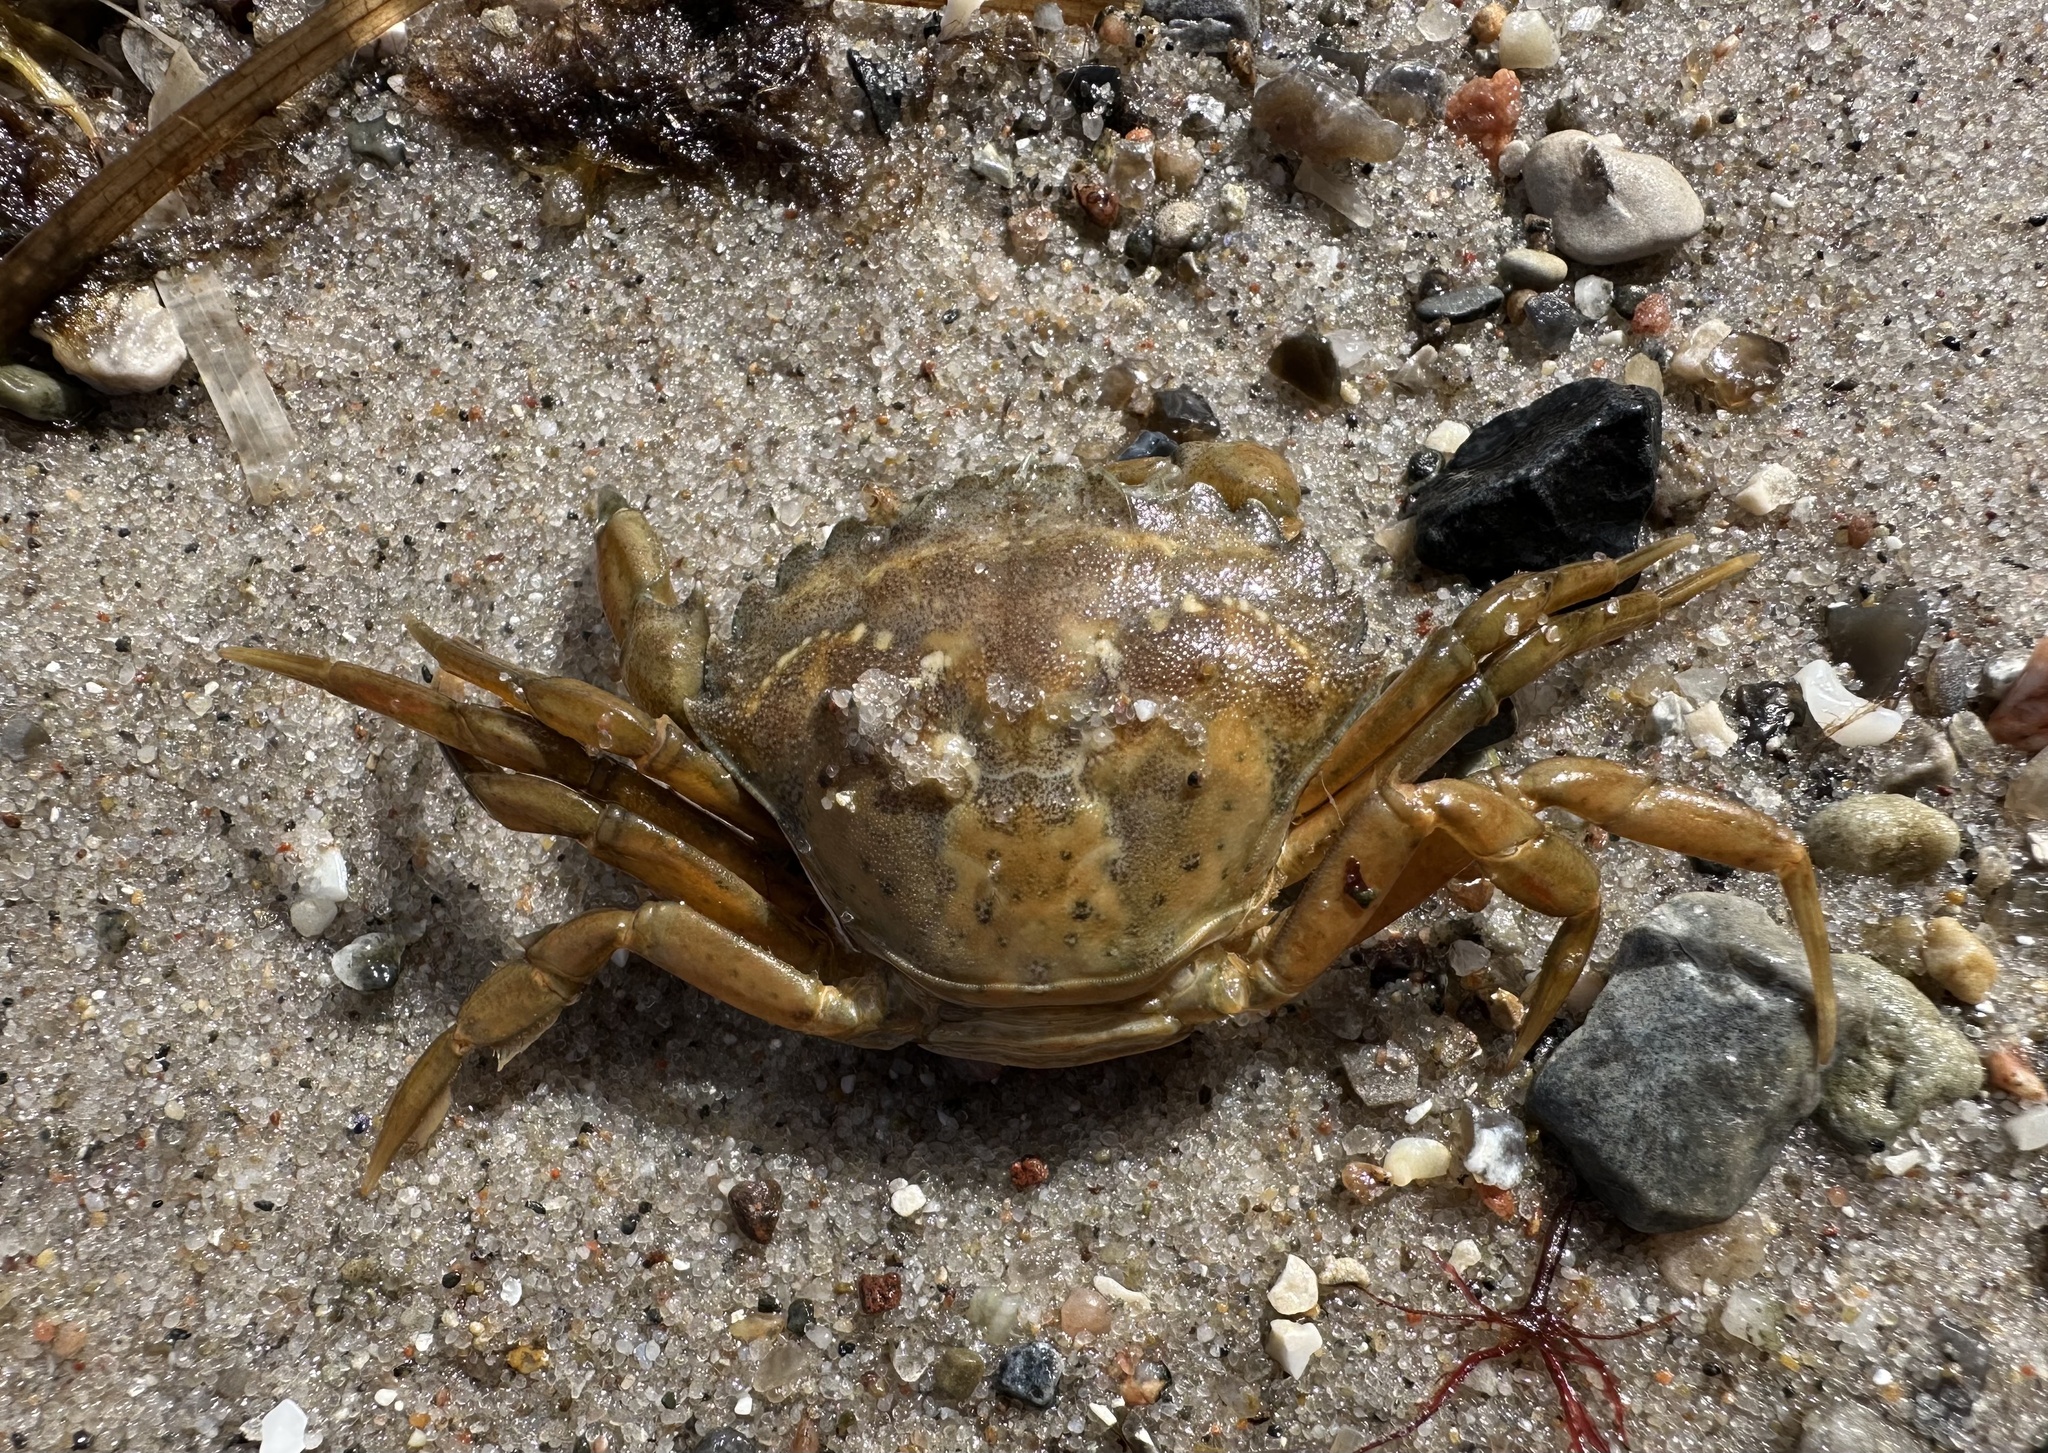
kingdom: Animalia
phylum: Arthropoda
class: Malacostraca
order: Decapoda
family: Carcinidae
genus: Carcinus
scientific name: Carcinus maenas
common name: European green crab
